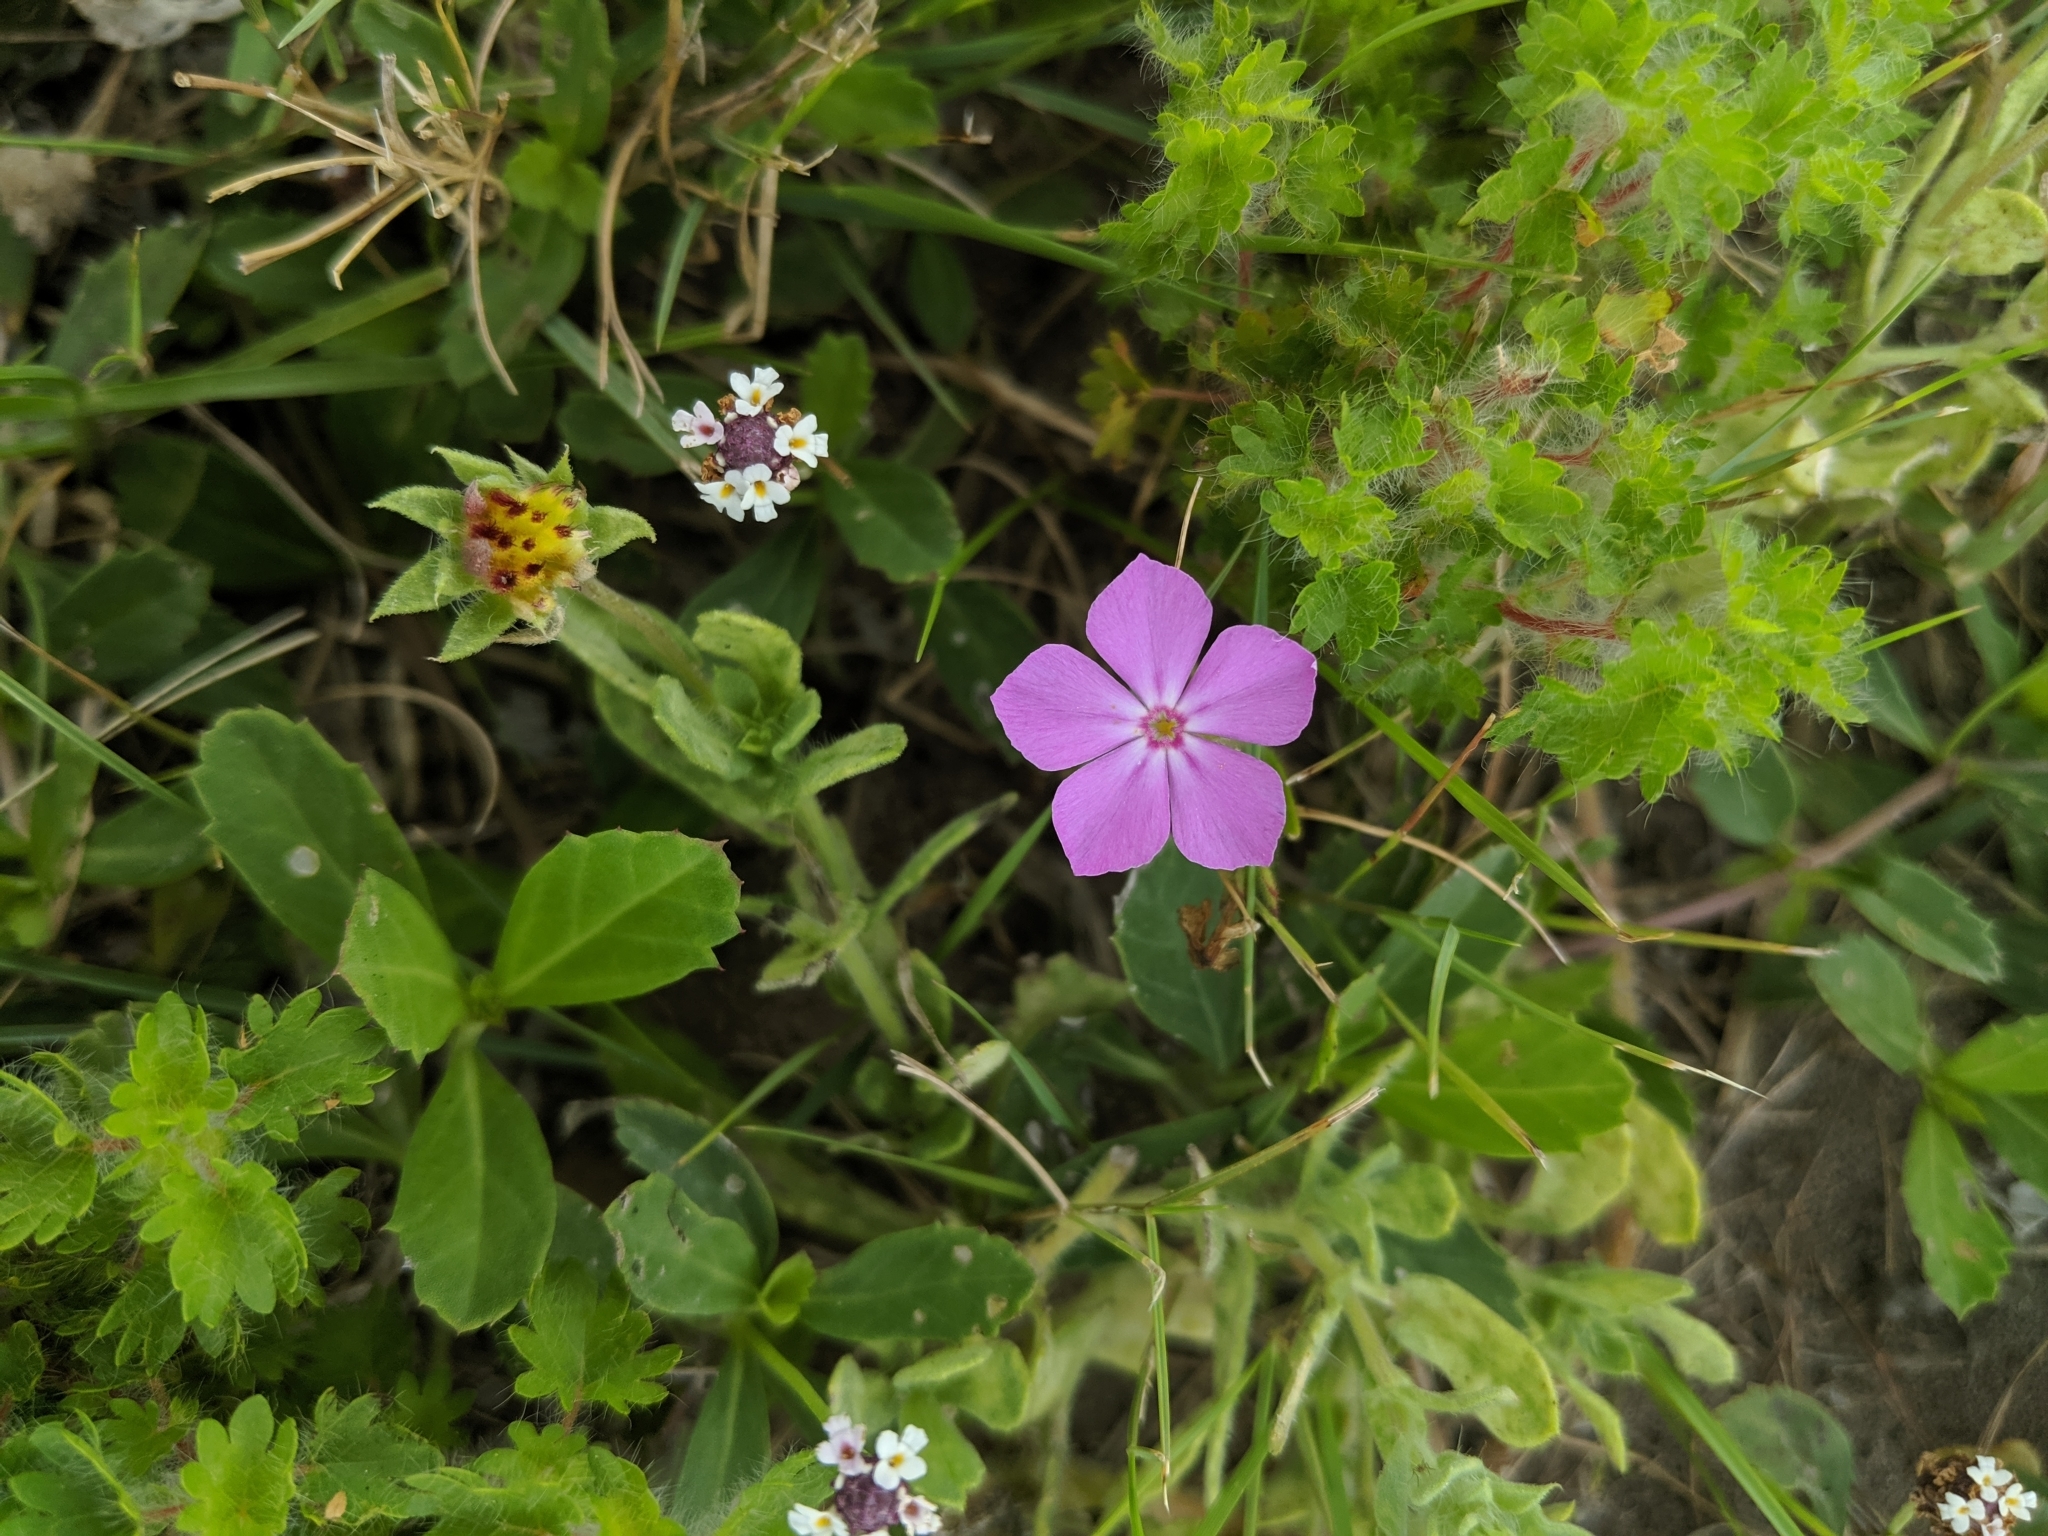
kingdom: Plantae
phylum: Tracheophyta
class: Magnoliopsida
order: Ericales
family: Polemoniaceae
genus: Phlox
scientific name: Phlox drummondii
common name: Drummond's phlox
